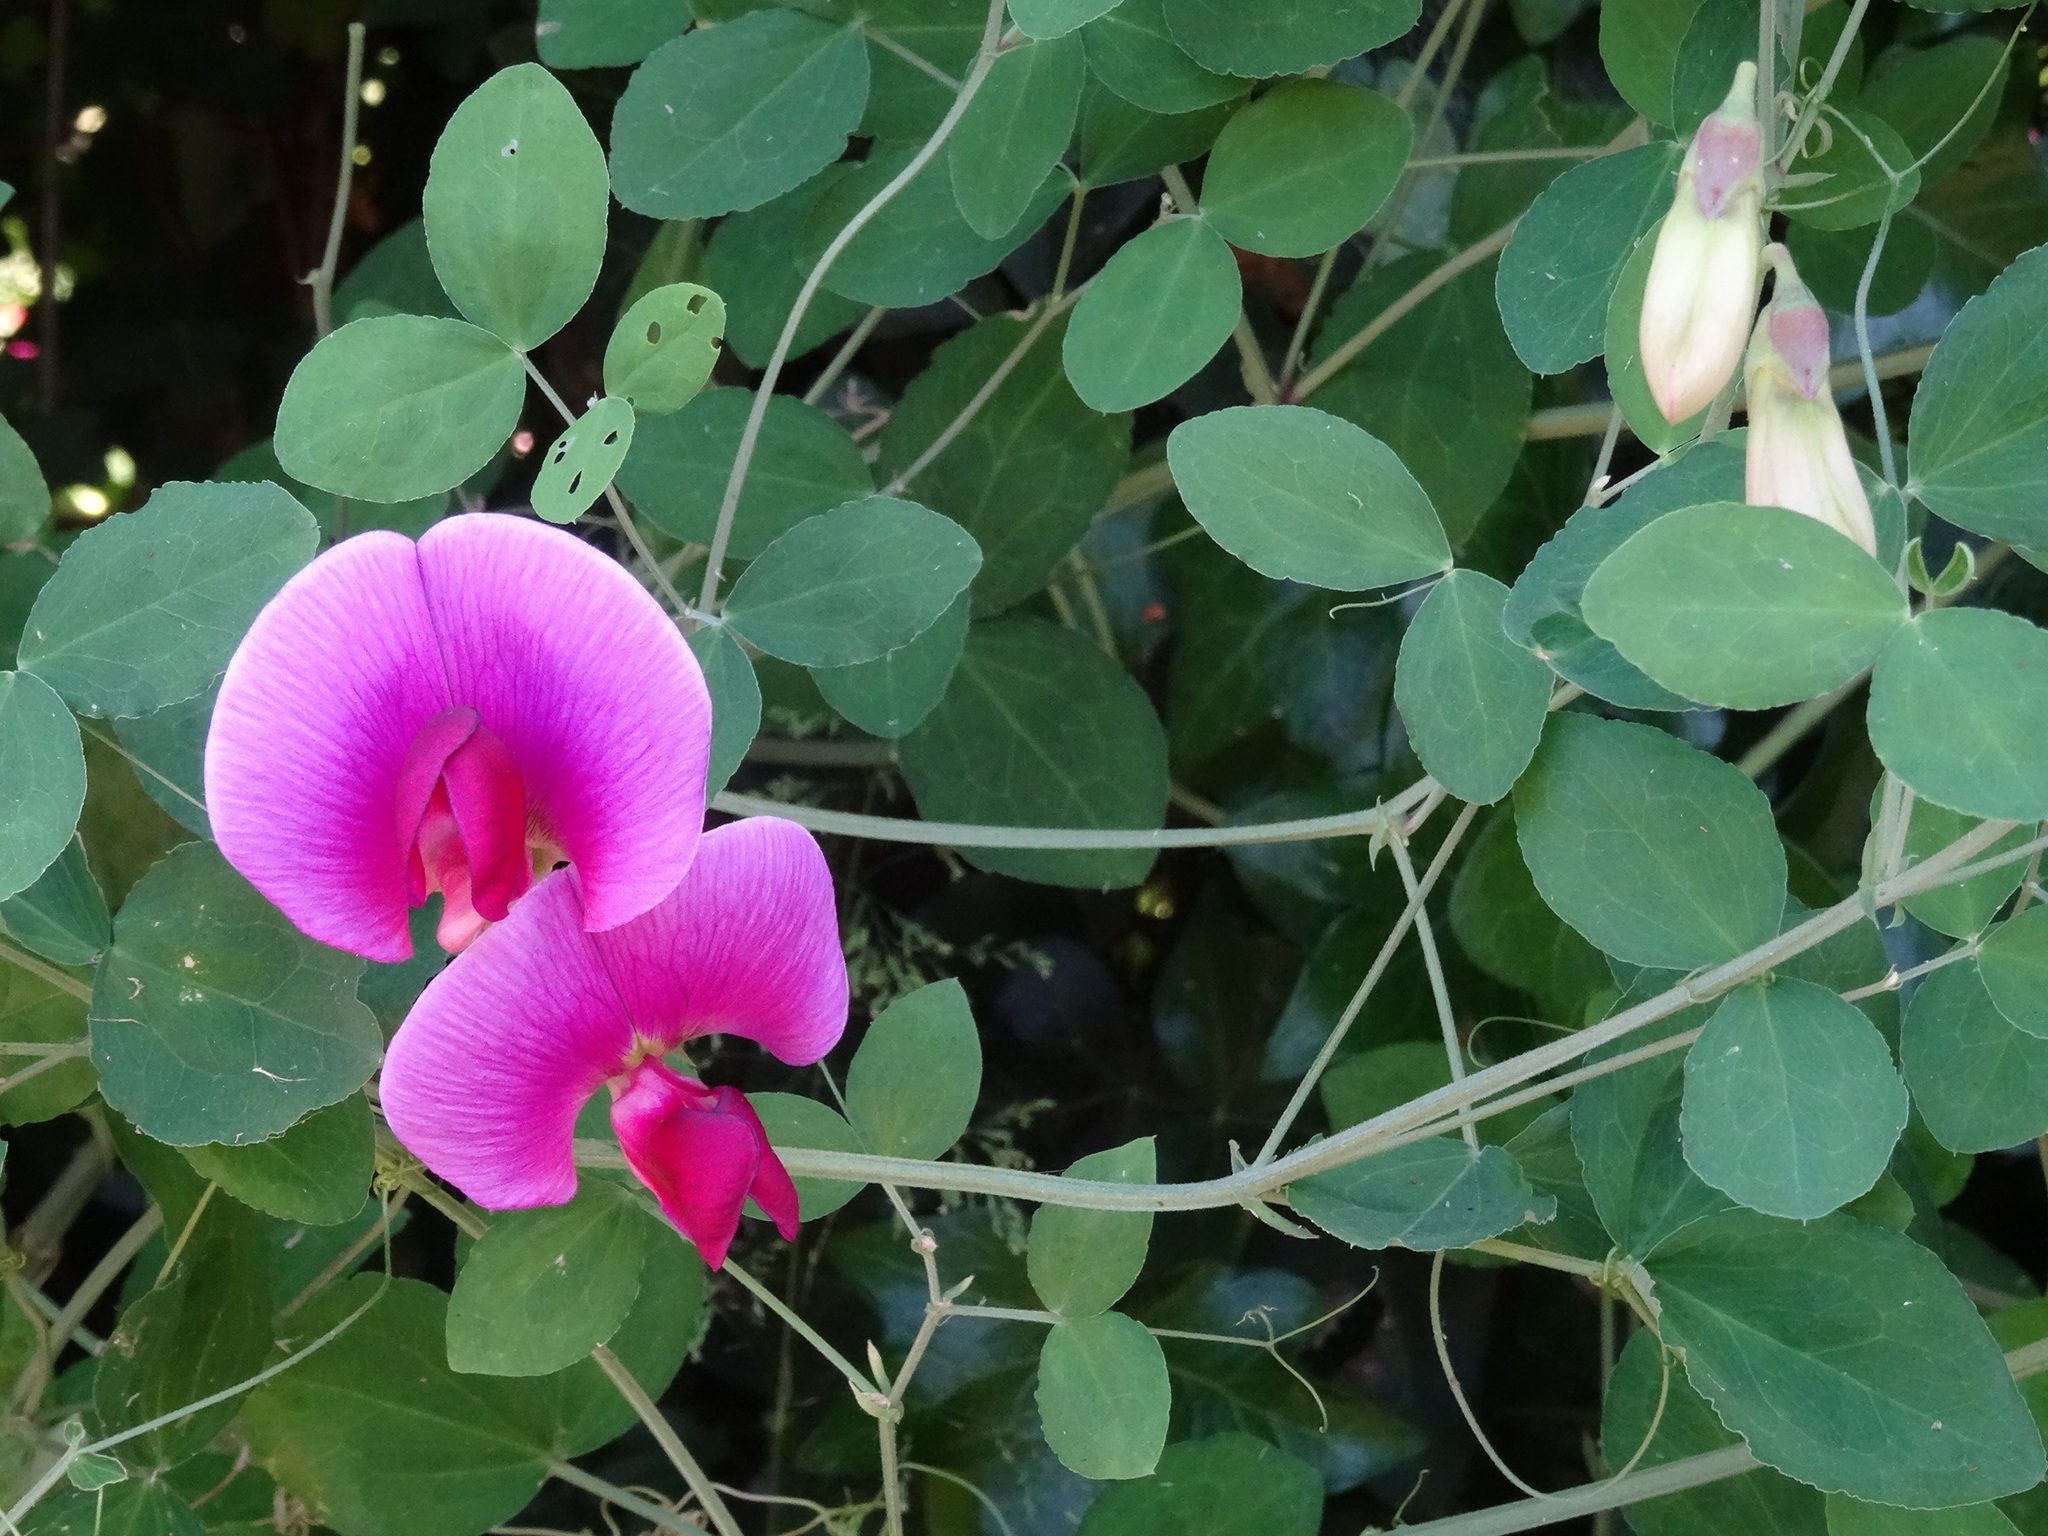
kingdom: Plantae
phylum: Tracheophyta
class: Magnoliopsida
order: Fabales
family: Fabaceae
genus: Lathyrus
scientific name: Lathyrus grandiflorus
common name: Two-flowered everlasting-pea
